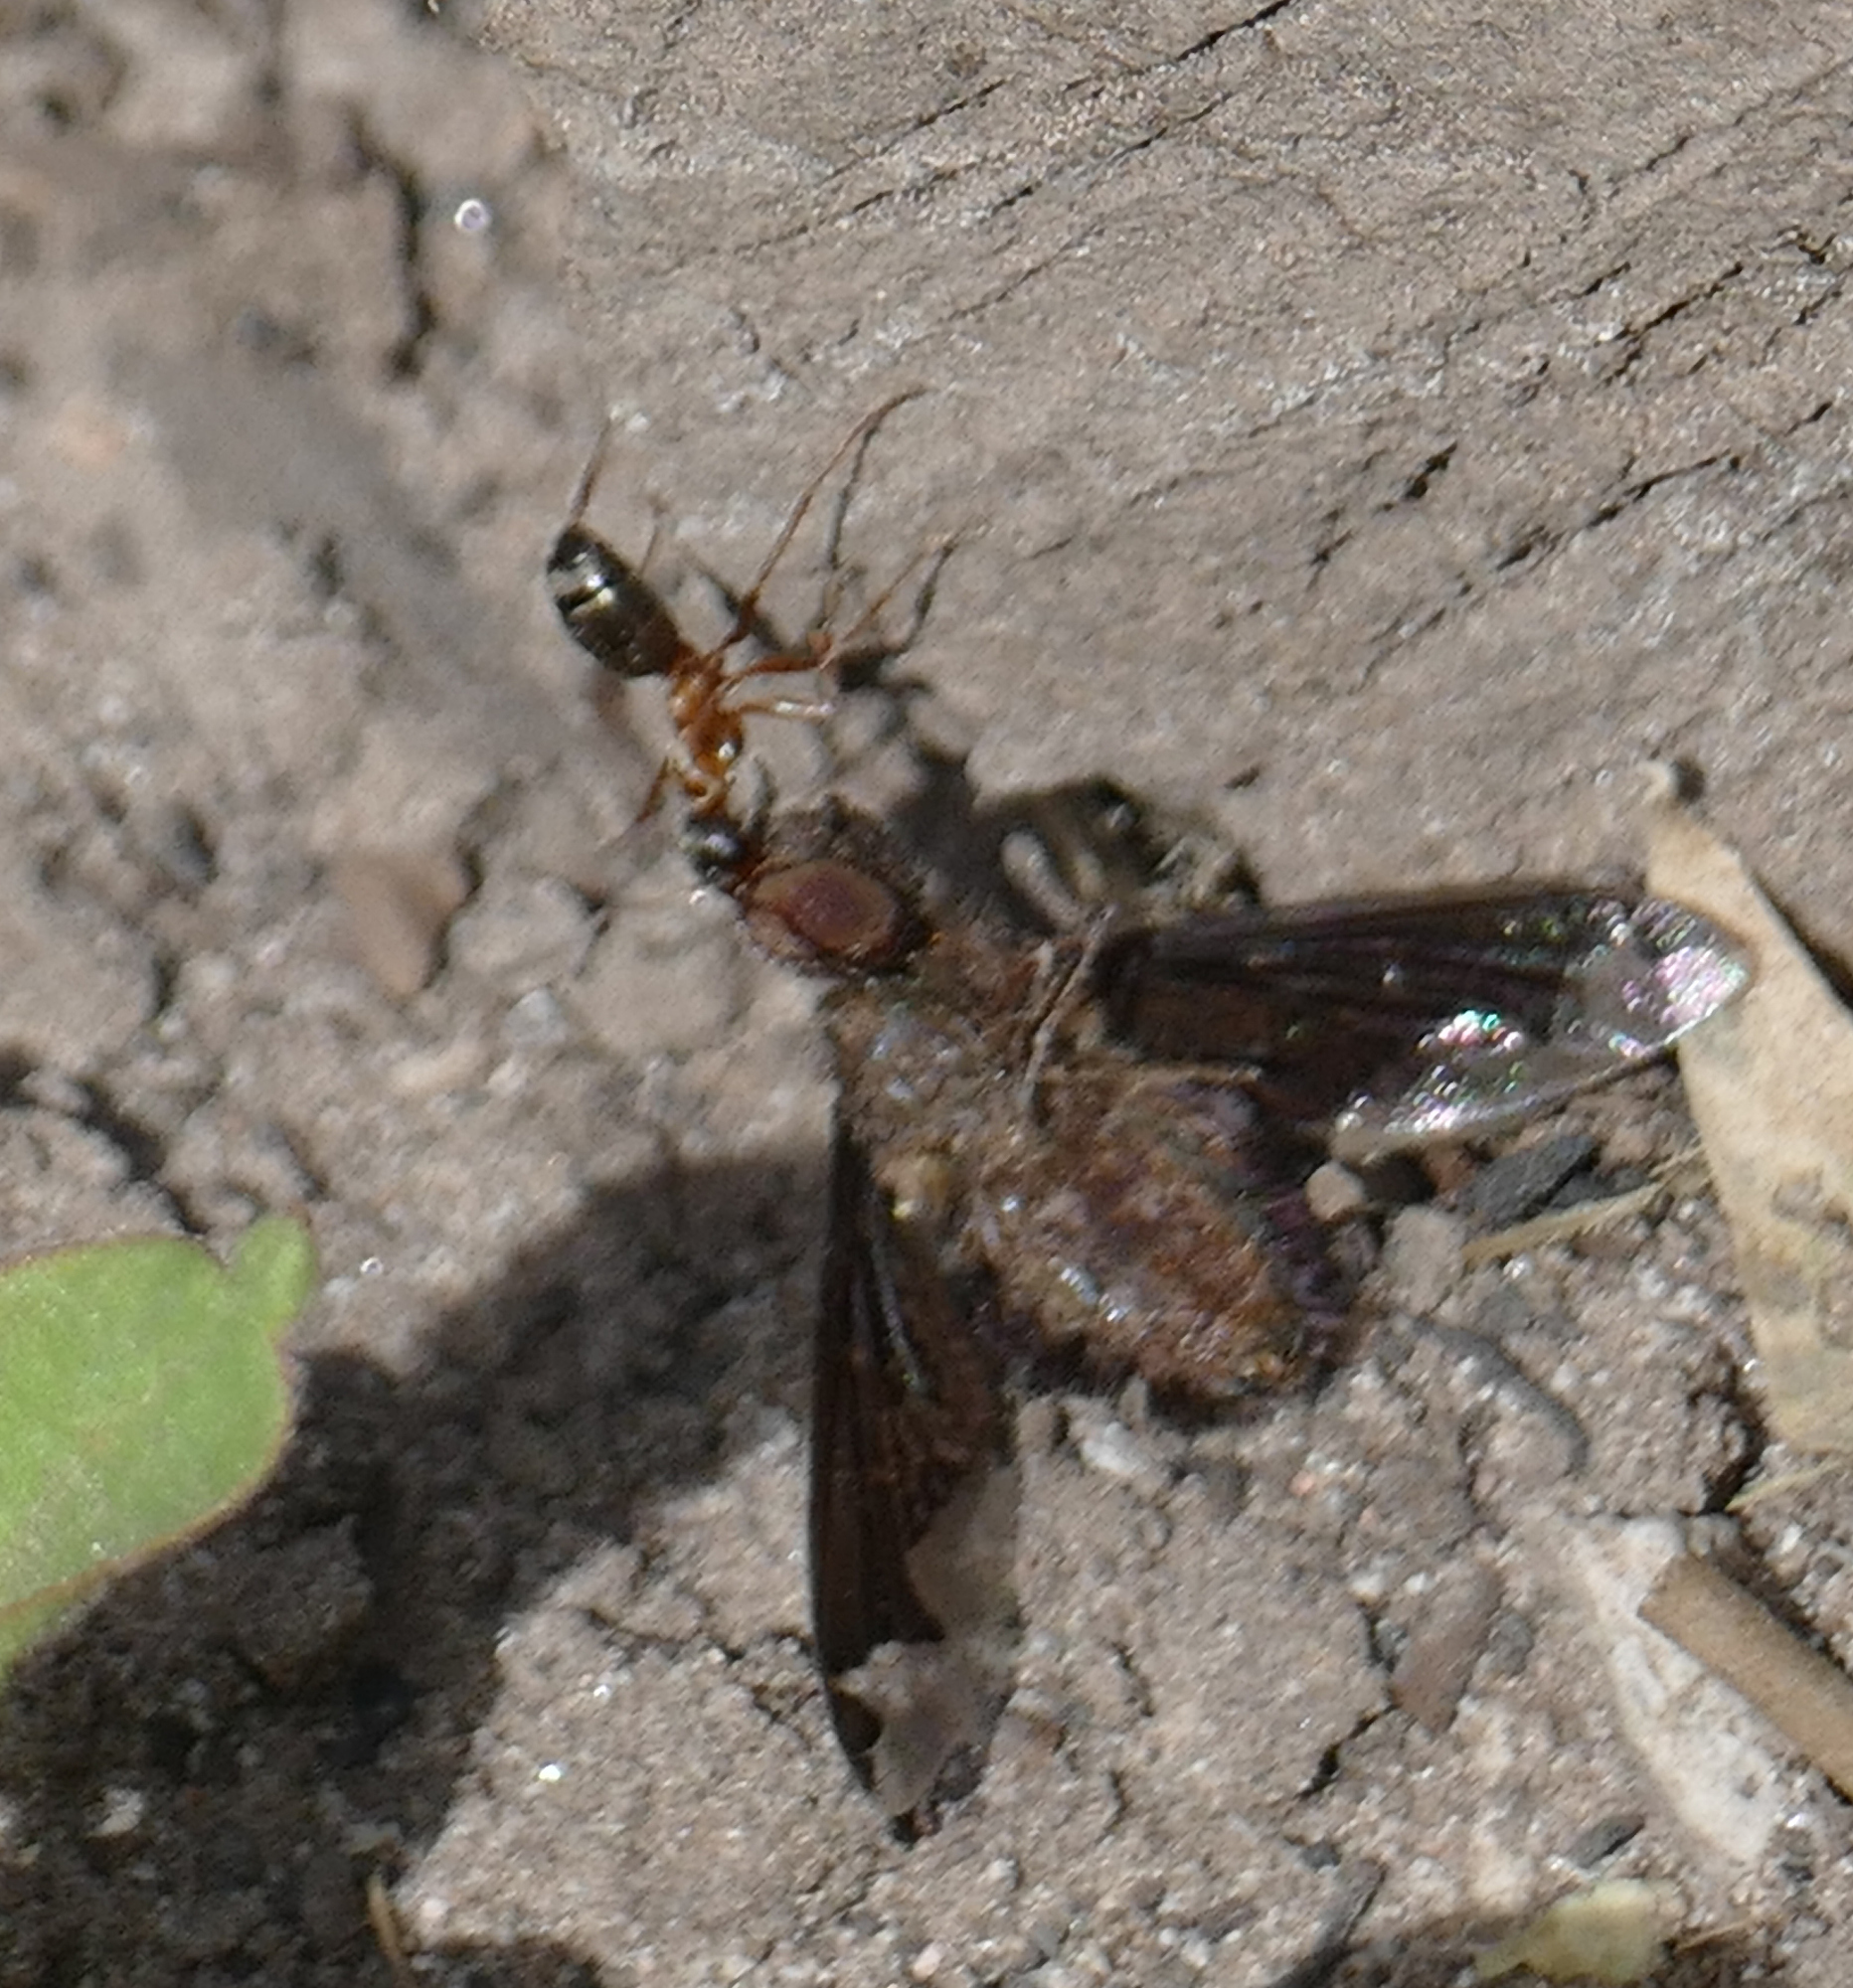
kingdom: Animalia
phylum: Arthropoda
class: Insecta
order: Diptera
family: Bombyliidae
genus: Hemipenthes
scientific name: Hemipenthes jaennickeana
